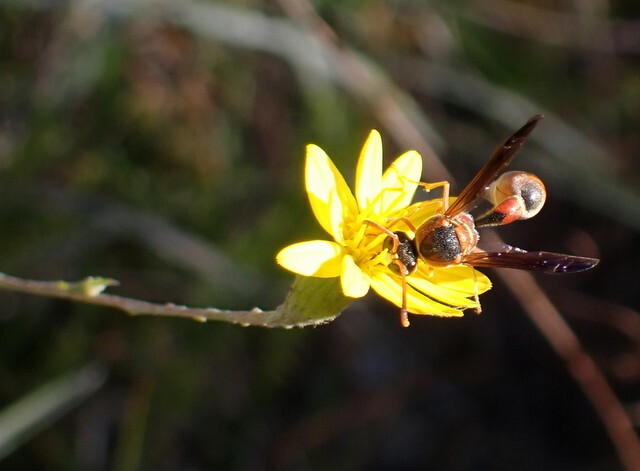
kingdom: Animalia
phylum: Arthropoda
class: Insecta
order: Hymenoptera
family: Vespidae
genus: Eumenes
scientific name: Eumenes smithii
